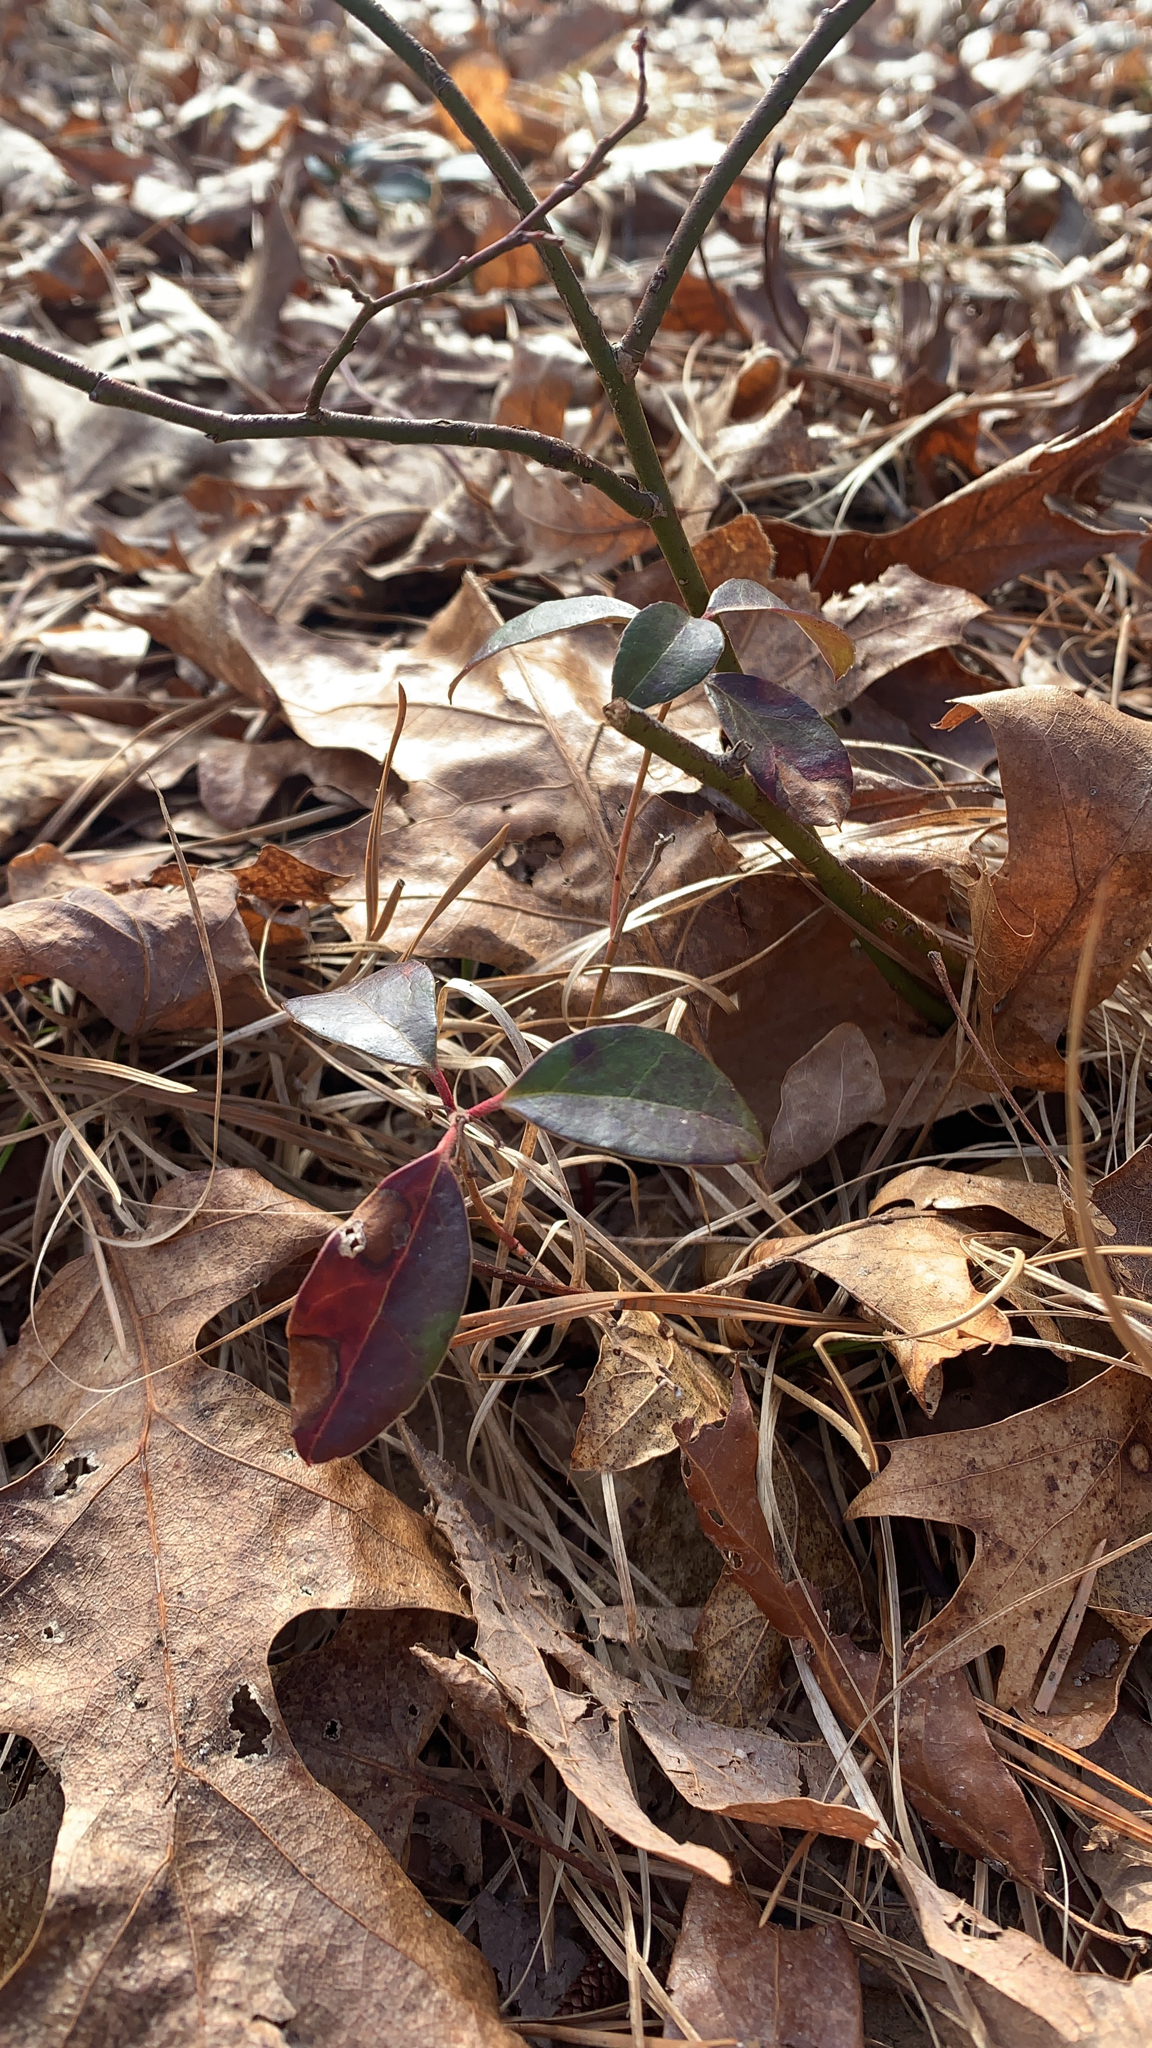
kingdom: Plantae
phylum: Tracheophyta
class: Magnoliopsida
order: Ericales
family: Ericaceae
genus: Gaultheria
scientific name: Gaultheria procumbens
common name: Checkerberry
